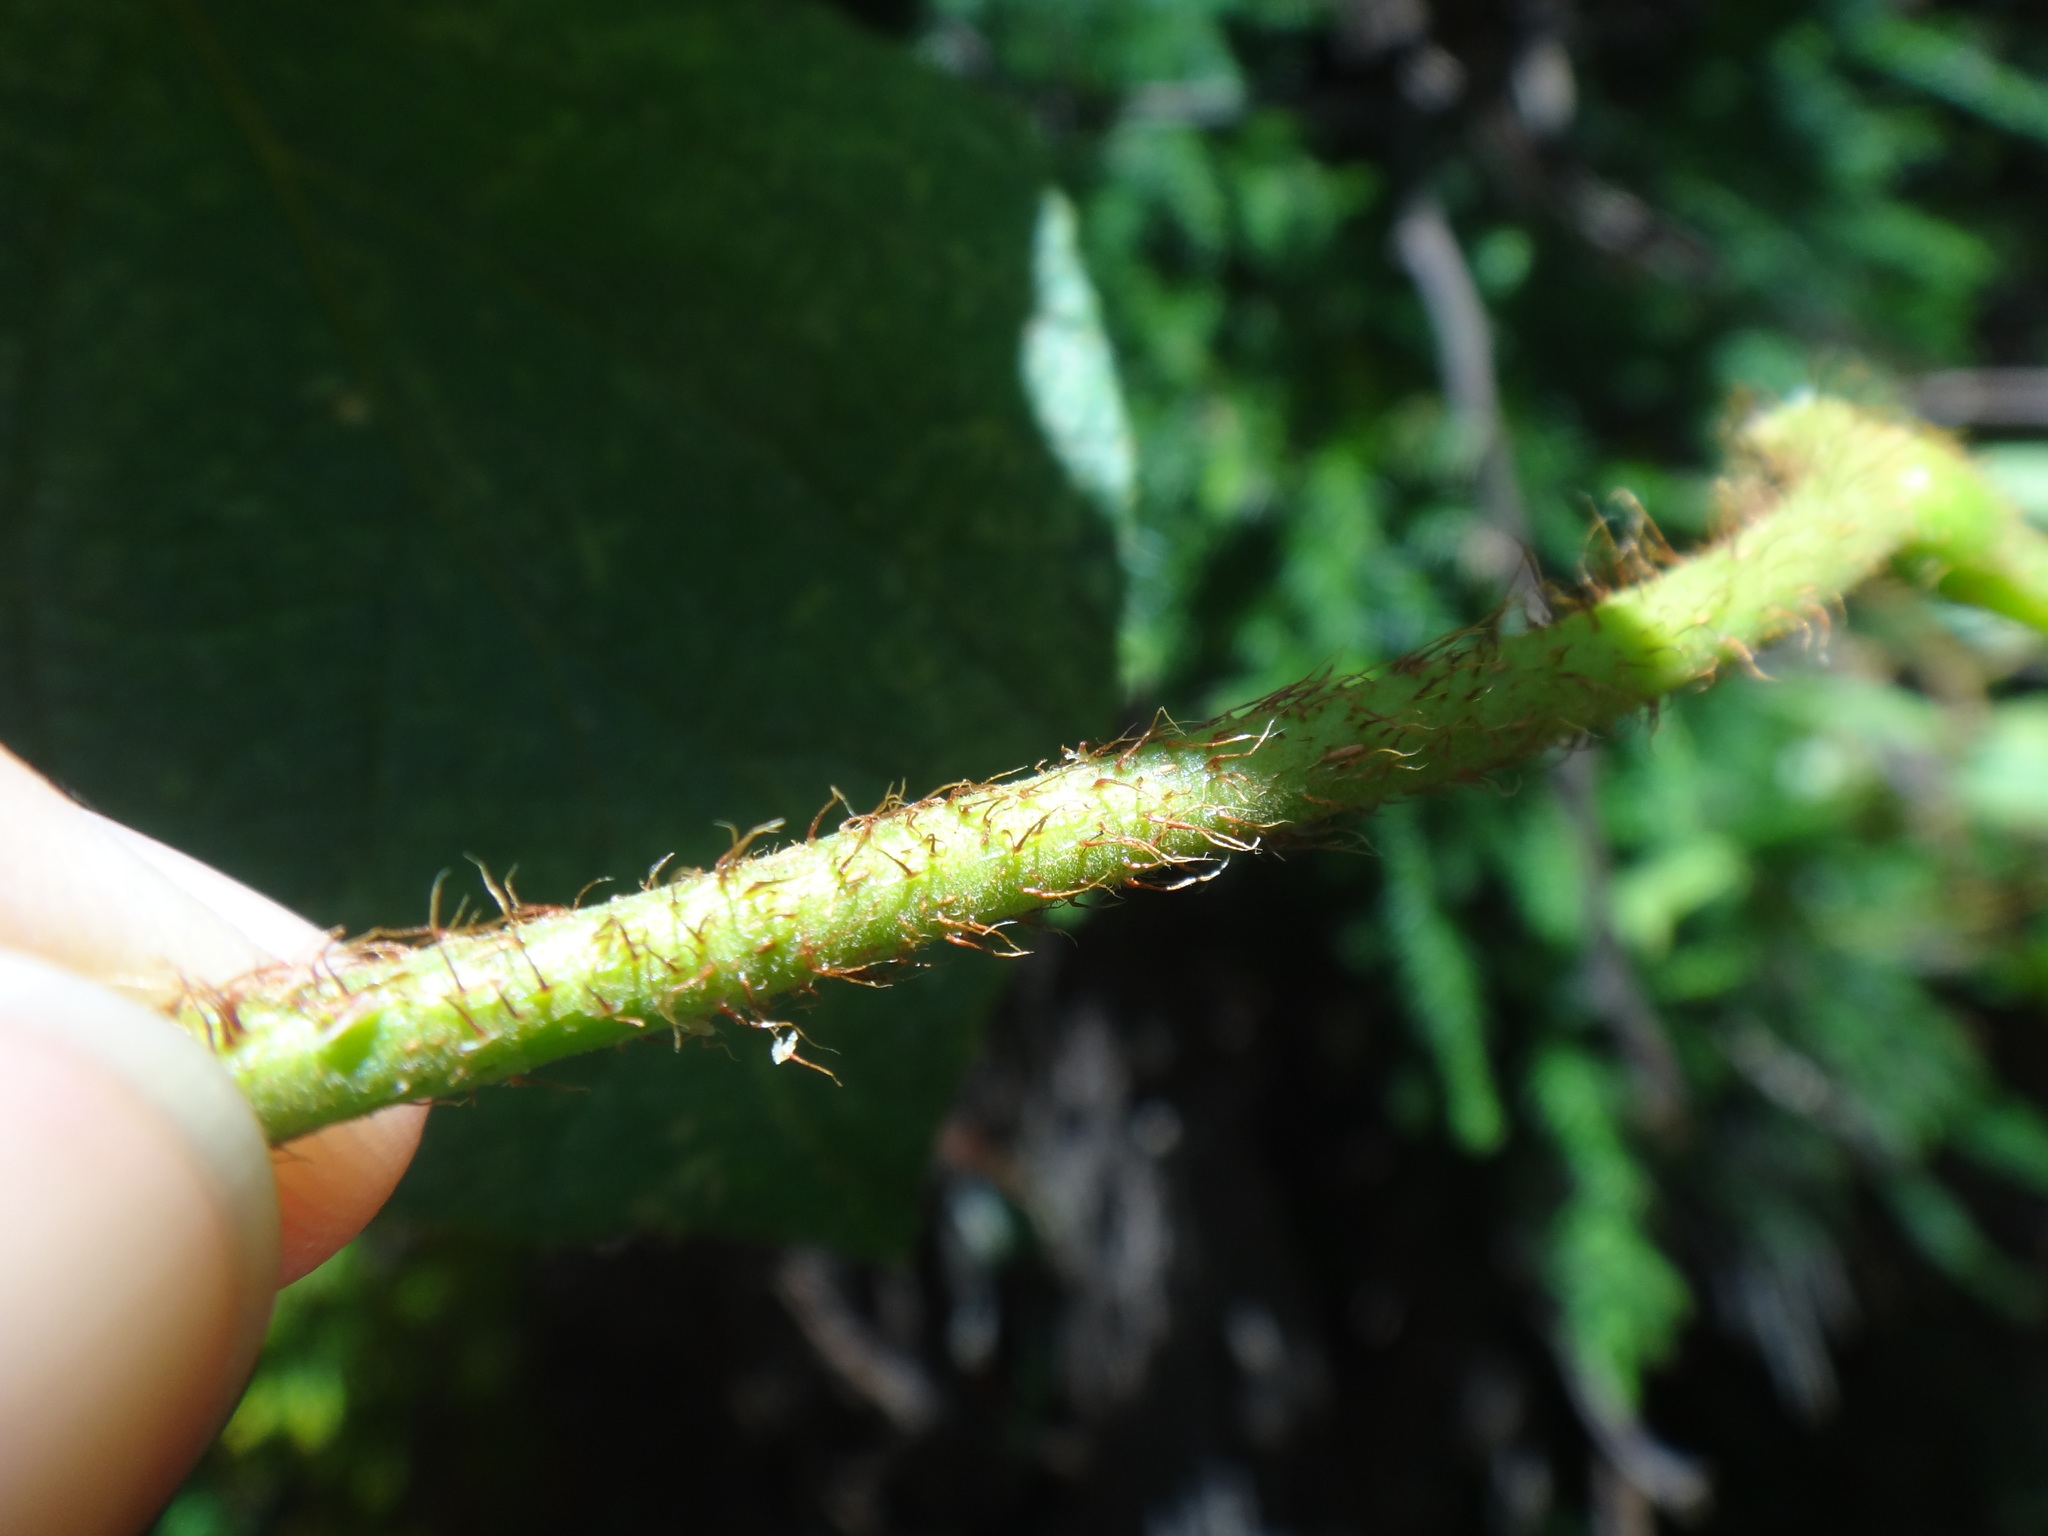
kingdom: Plantae
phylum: Tracheophyta
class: Magnoliopsida
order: Ericales
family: Actinidiaceae
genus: Actinidia
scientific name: Actinidia chinensis
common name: Kiwi
